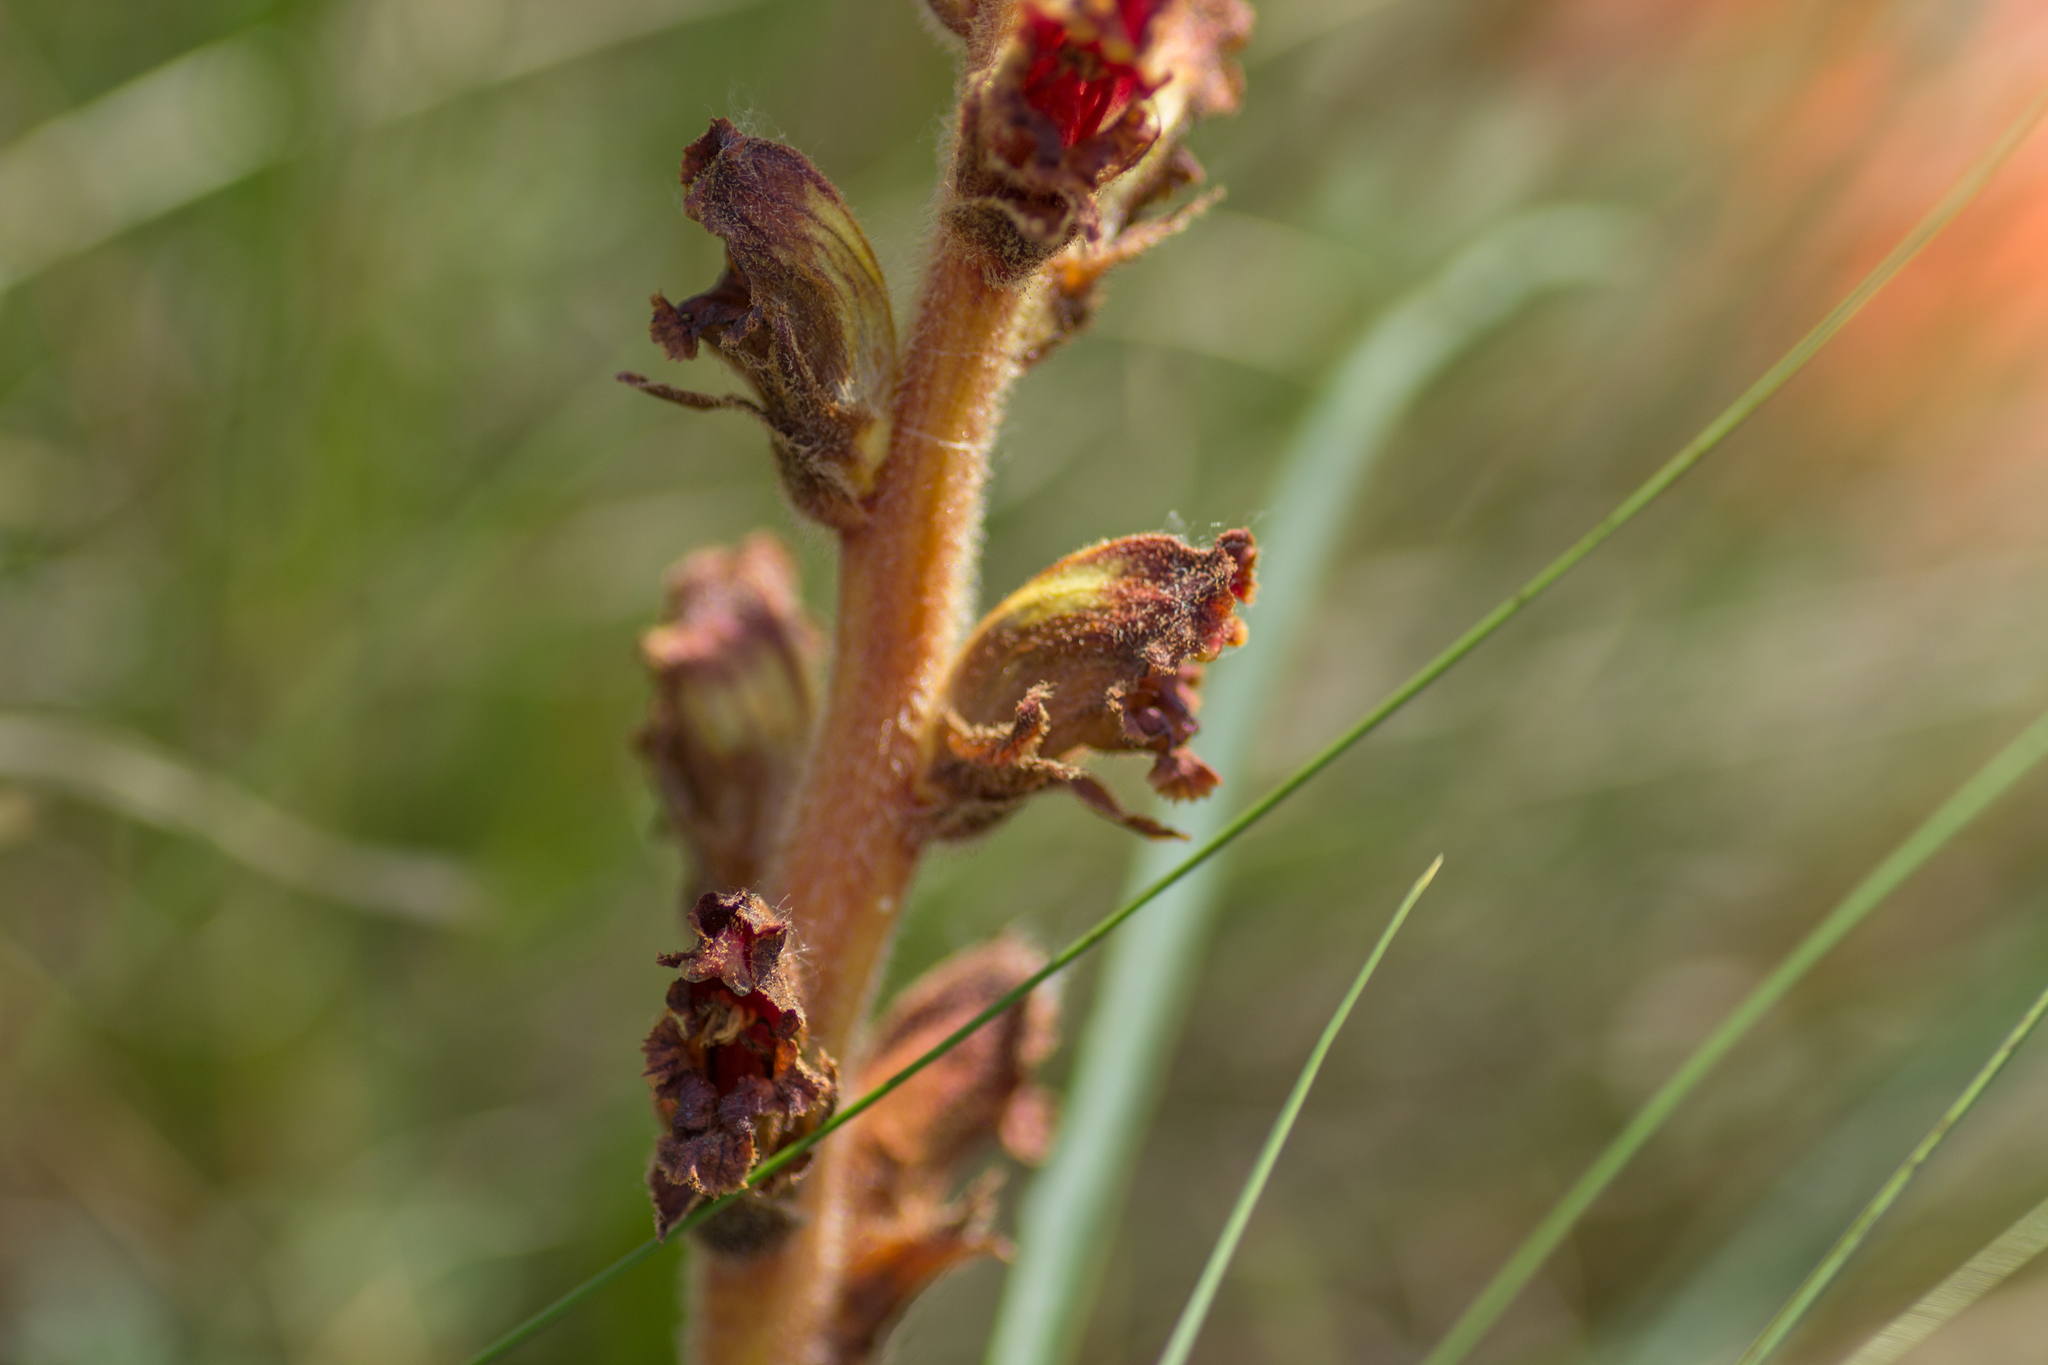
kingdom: Plantae
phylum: Tracheophyta
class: Magnoliopsida
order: Lamiales
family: Orobanchaceae
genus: Orobanche
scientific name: Orobanche gracilis
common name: Slender broomrape
